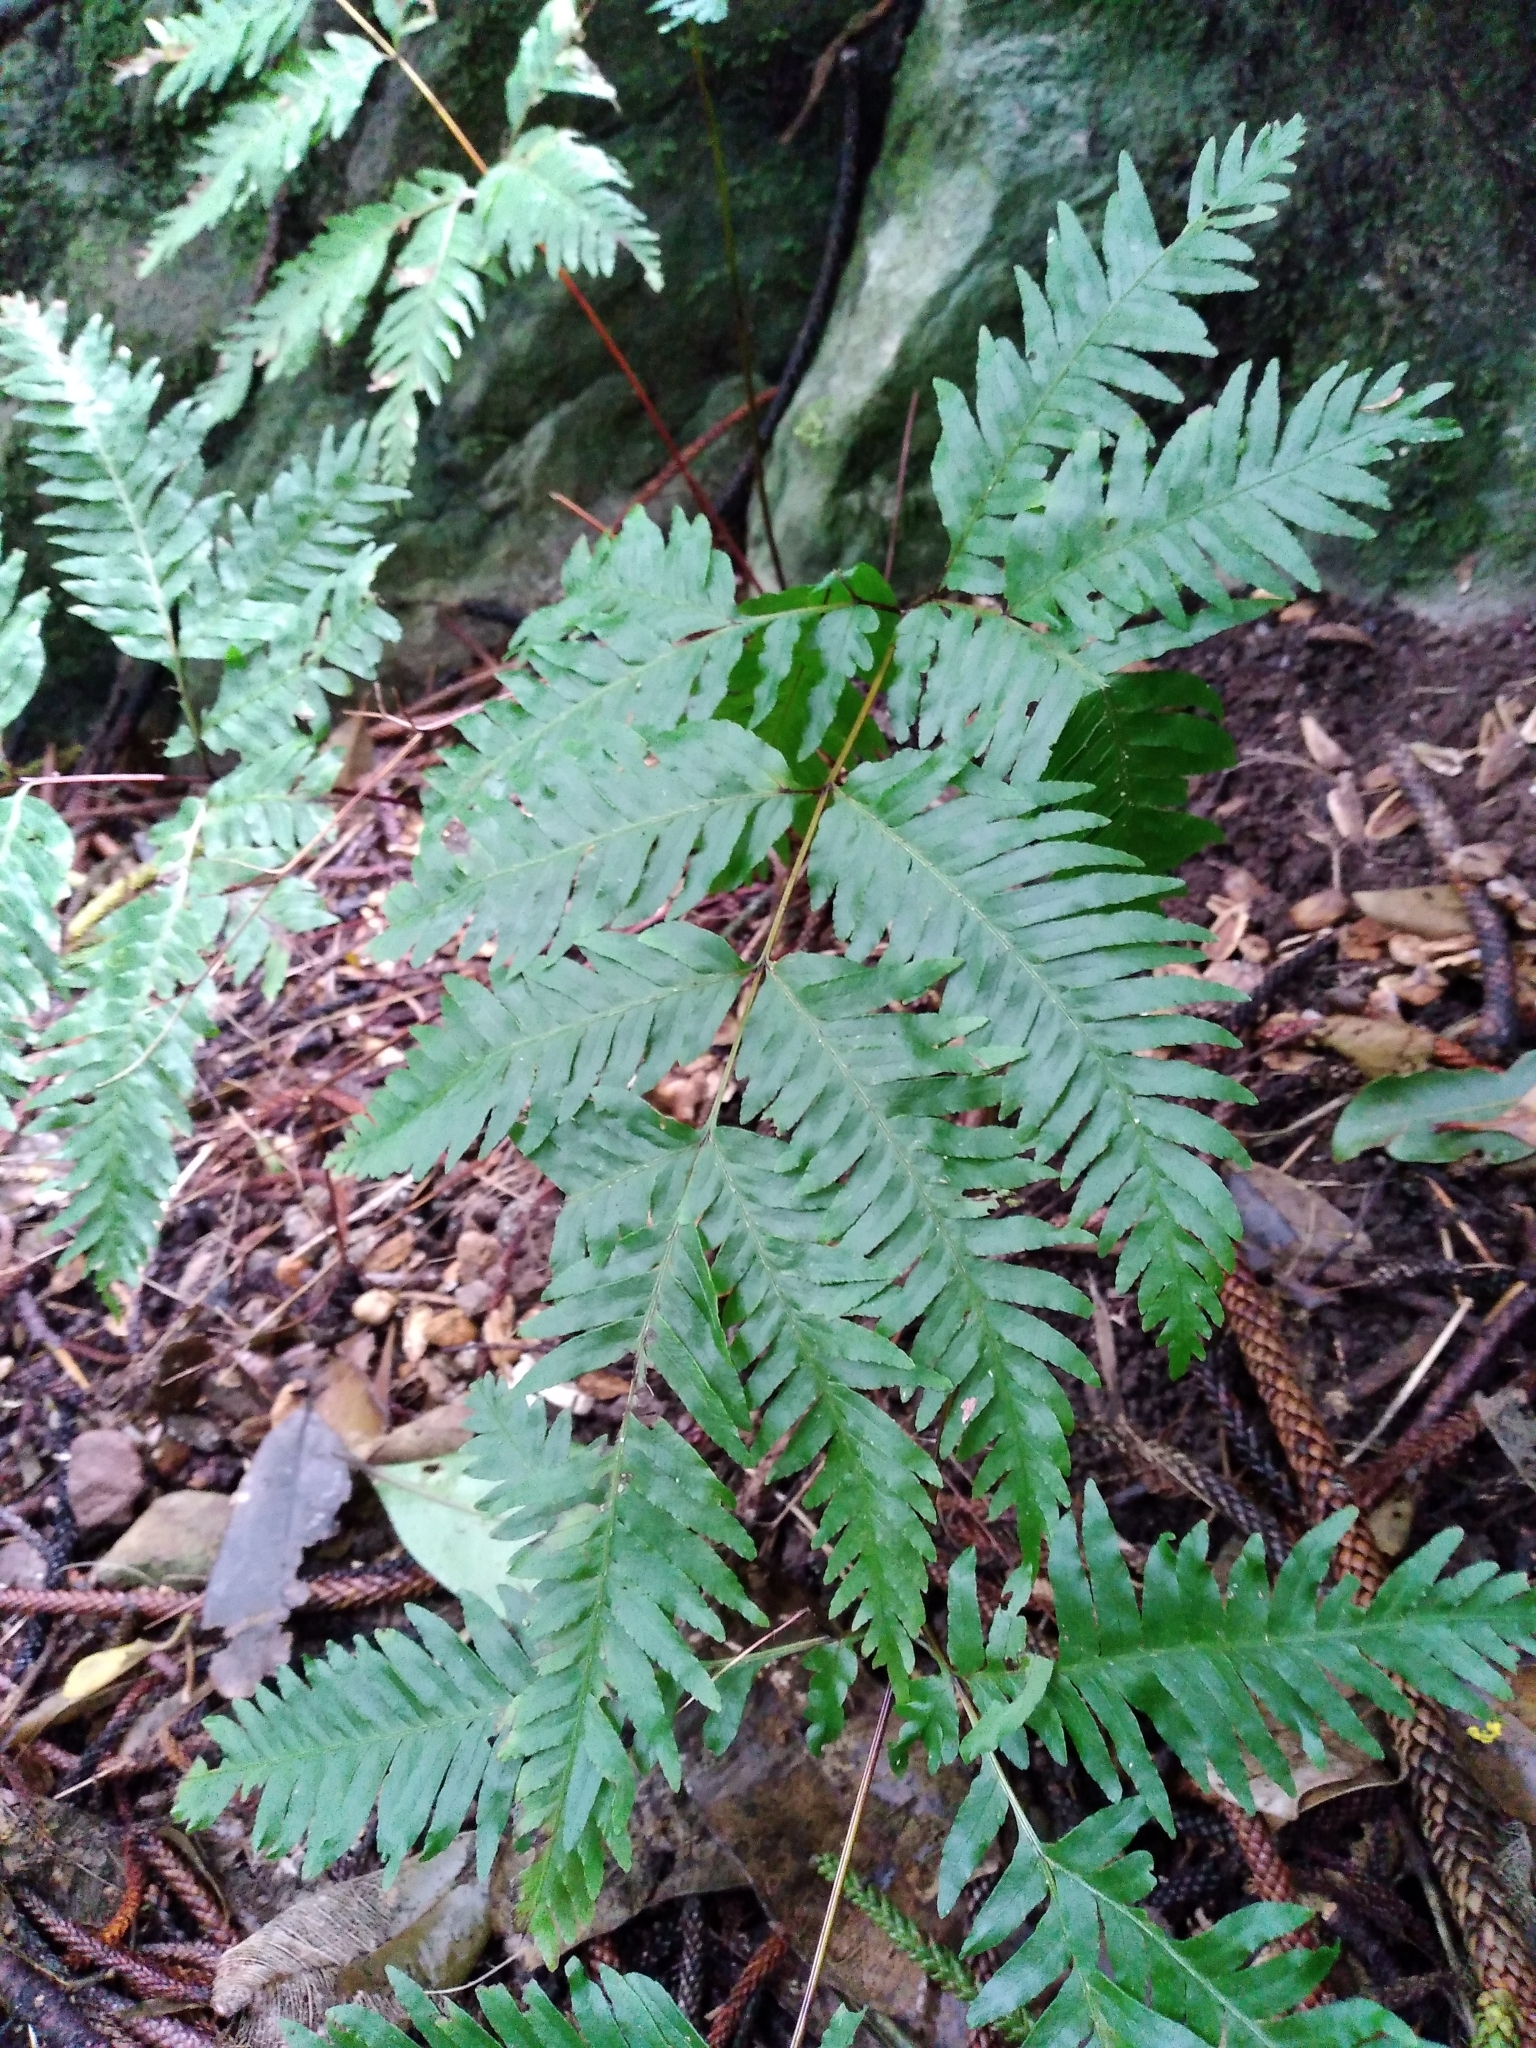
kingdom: Plantae
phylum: Tracheophyta
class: Polypodiopsida
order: Polypodiales
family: Pteridaceae
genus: Pteris
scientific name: Pteris kingiana
